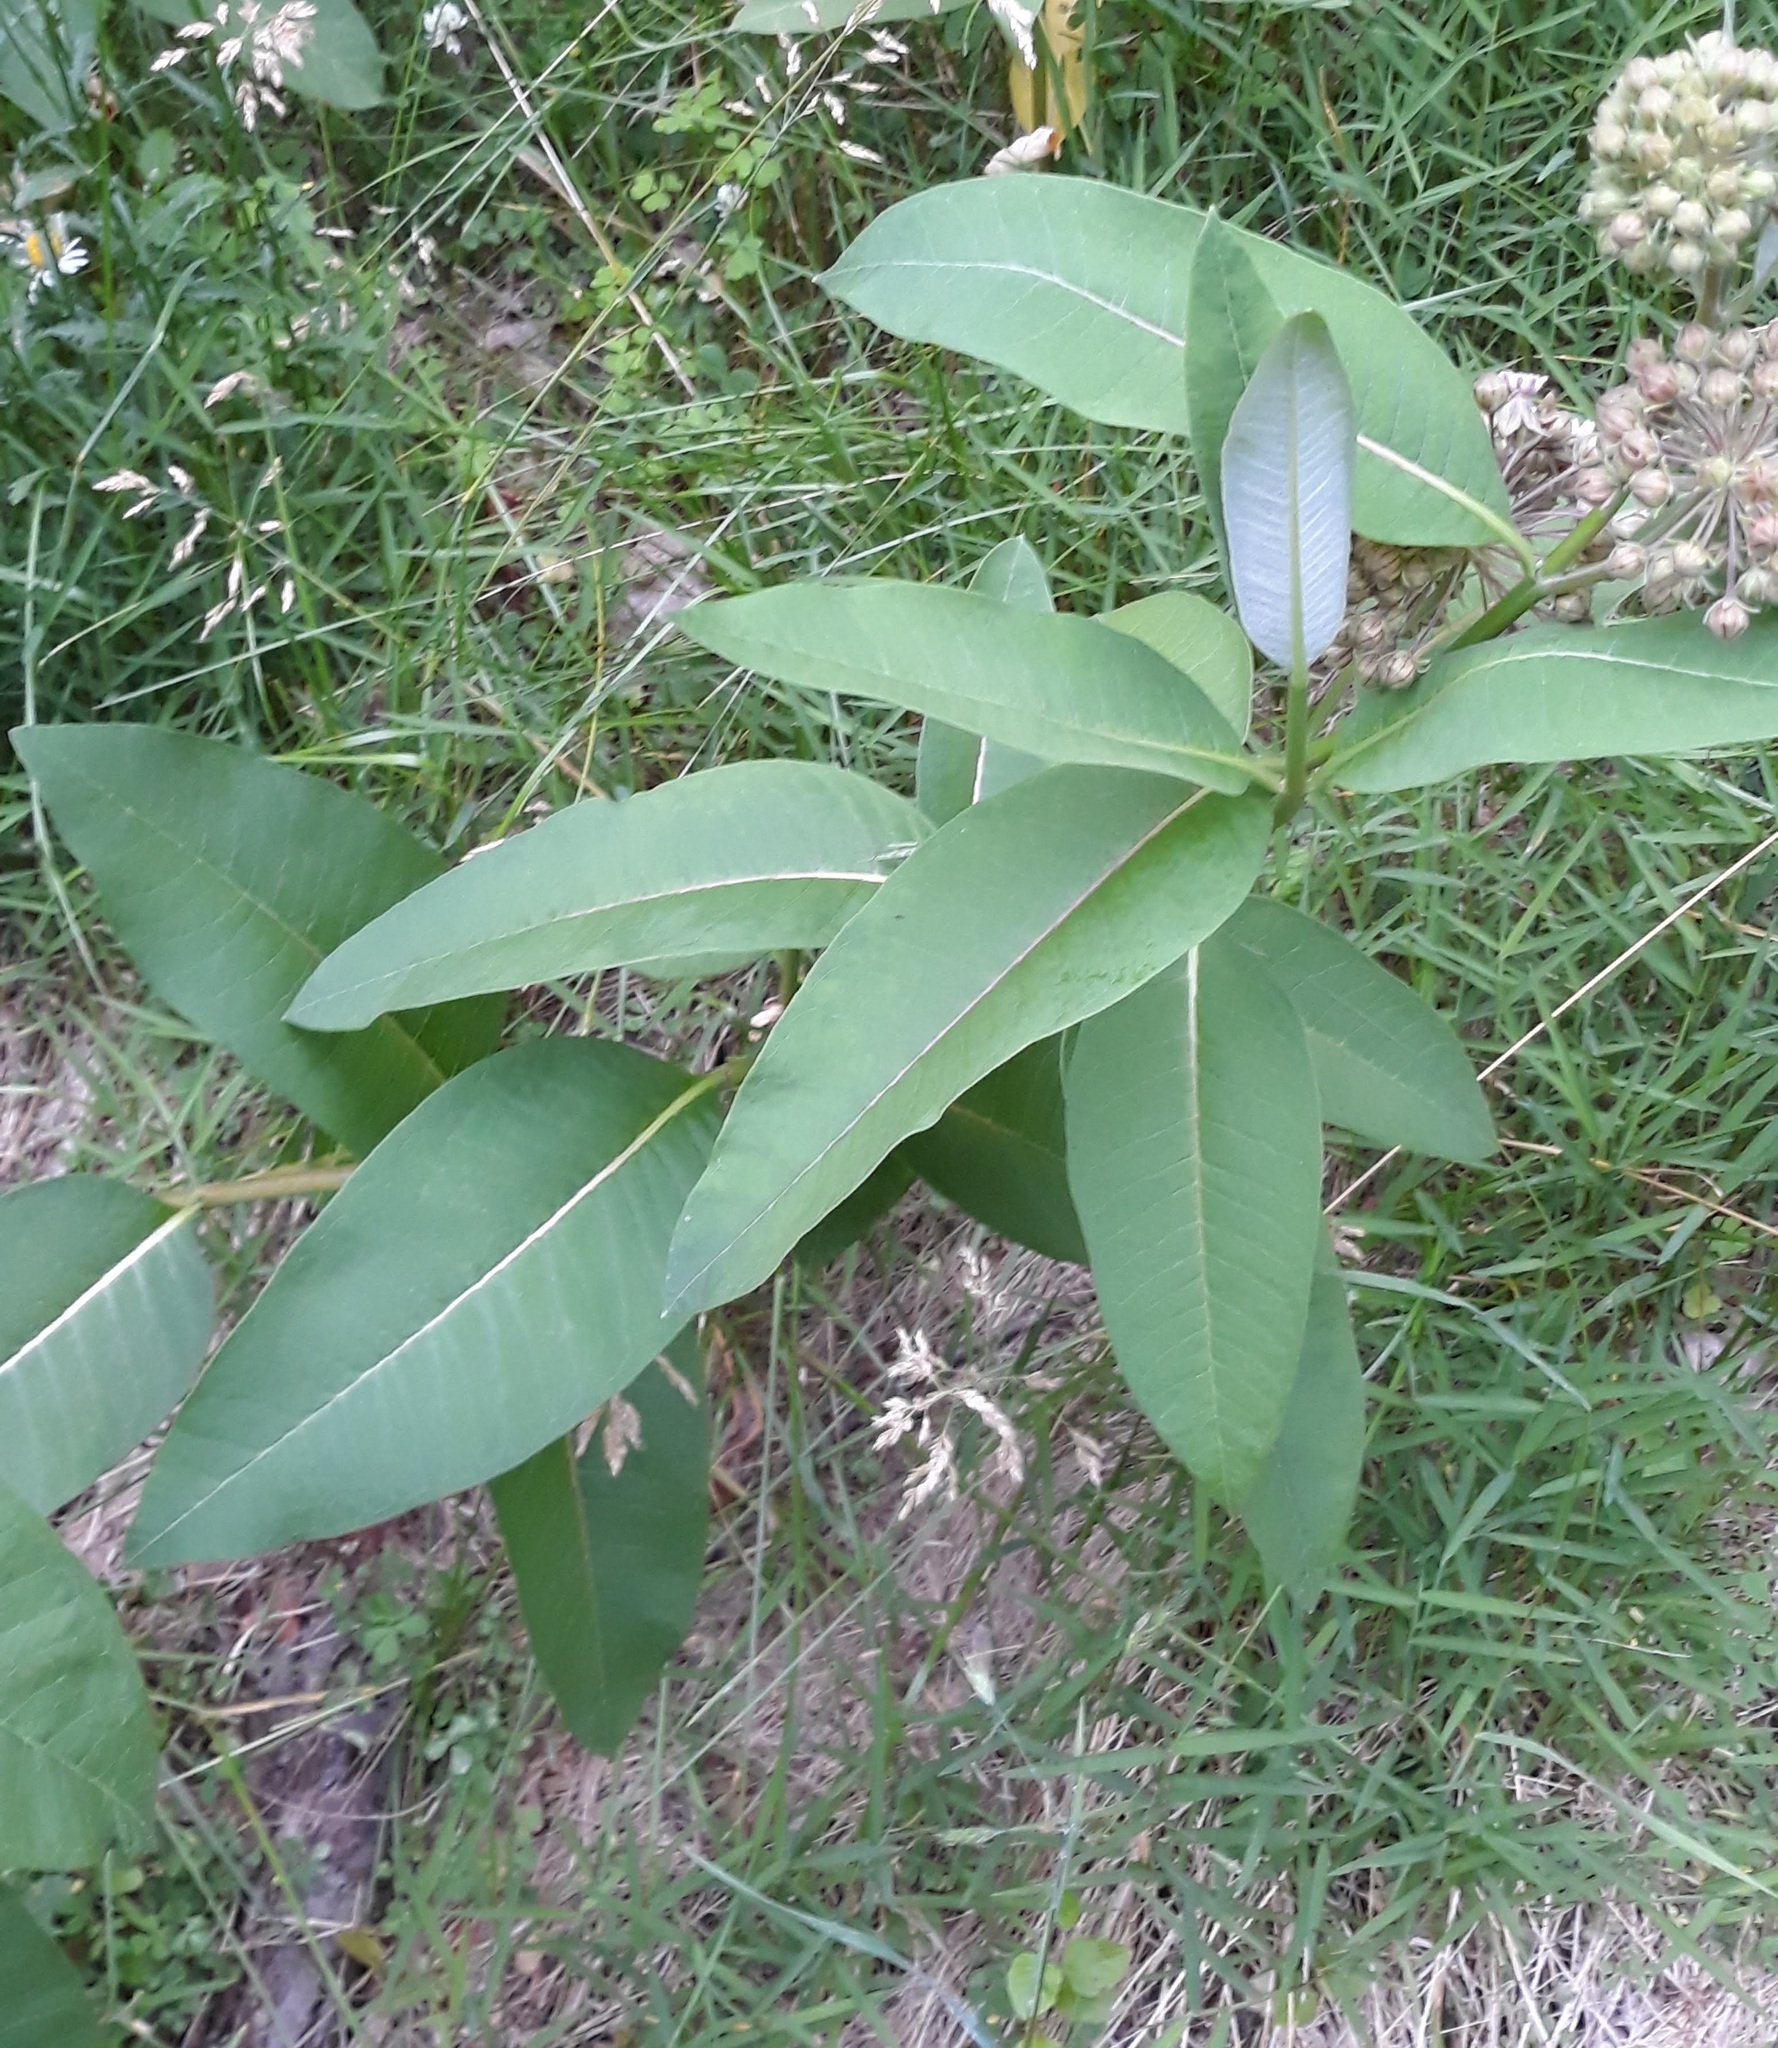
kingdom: Plantae
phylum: Tracheophyta
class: Magnoliopsida
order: Gentianales
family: Apocynaceae
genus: Asclepias
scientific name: Asclepias syriaca
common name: Common milkweed
